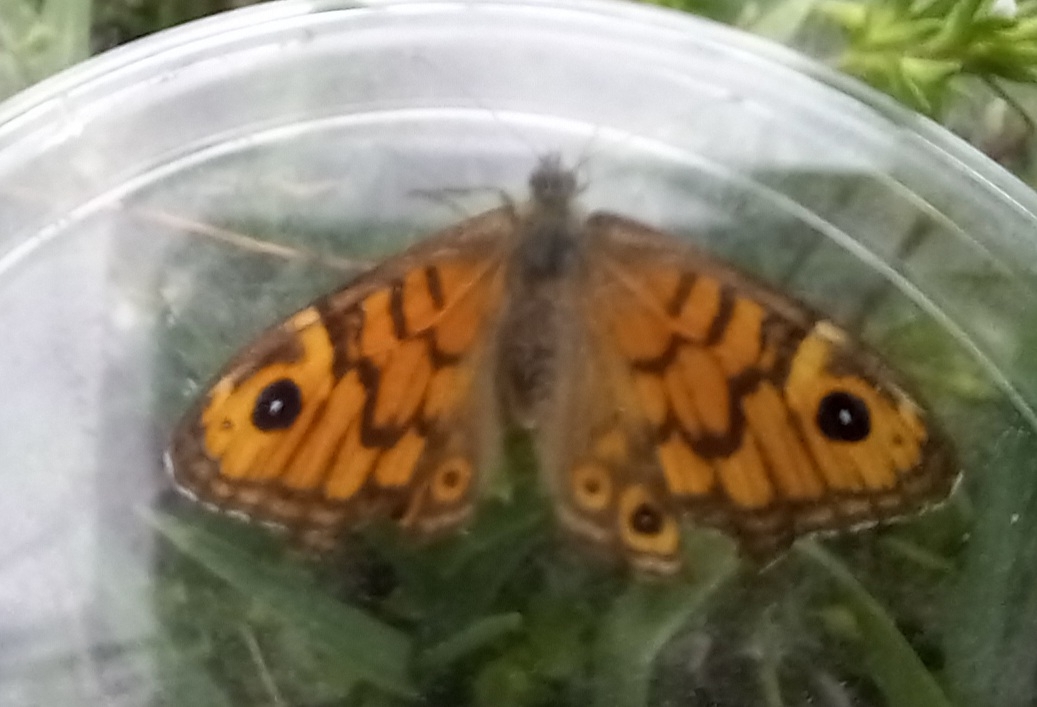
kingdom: Animalia
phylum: Arthropoda
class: Insecta
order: Lepidoptera
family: Nymphalidae
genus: Pararge
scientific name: Pararge Lasiommata megera
